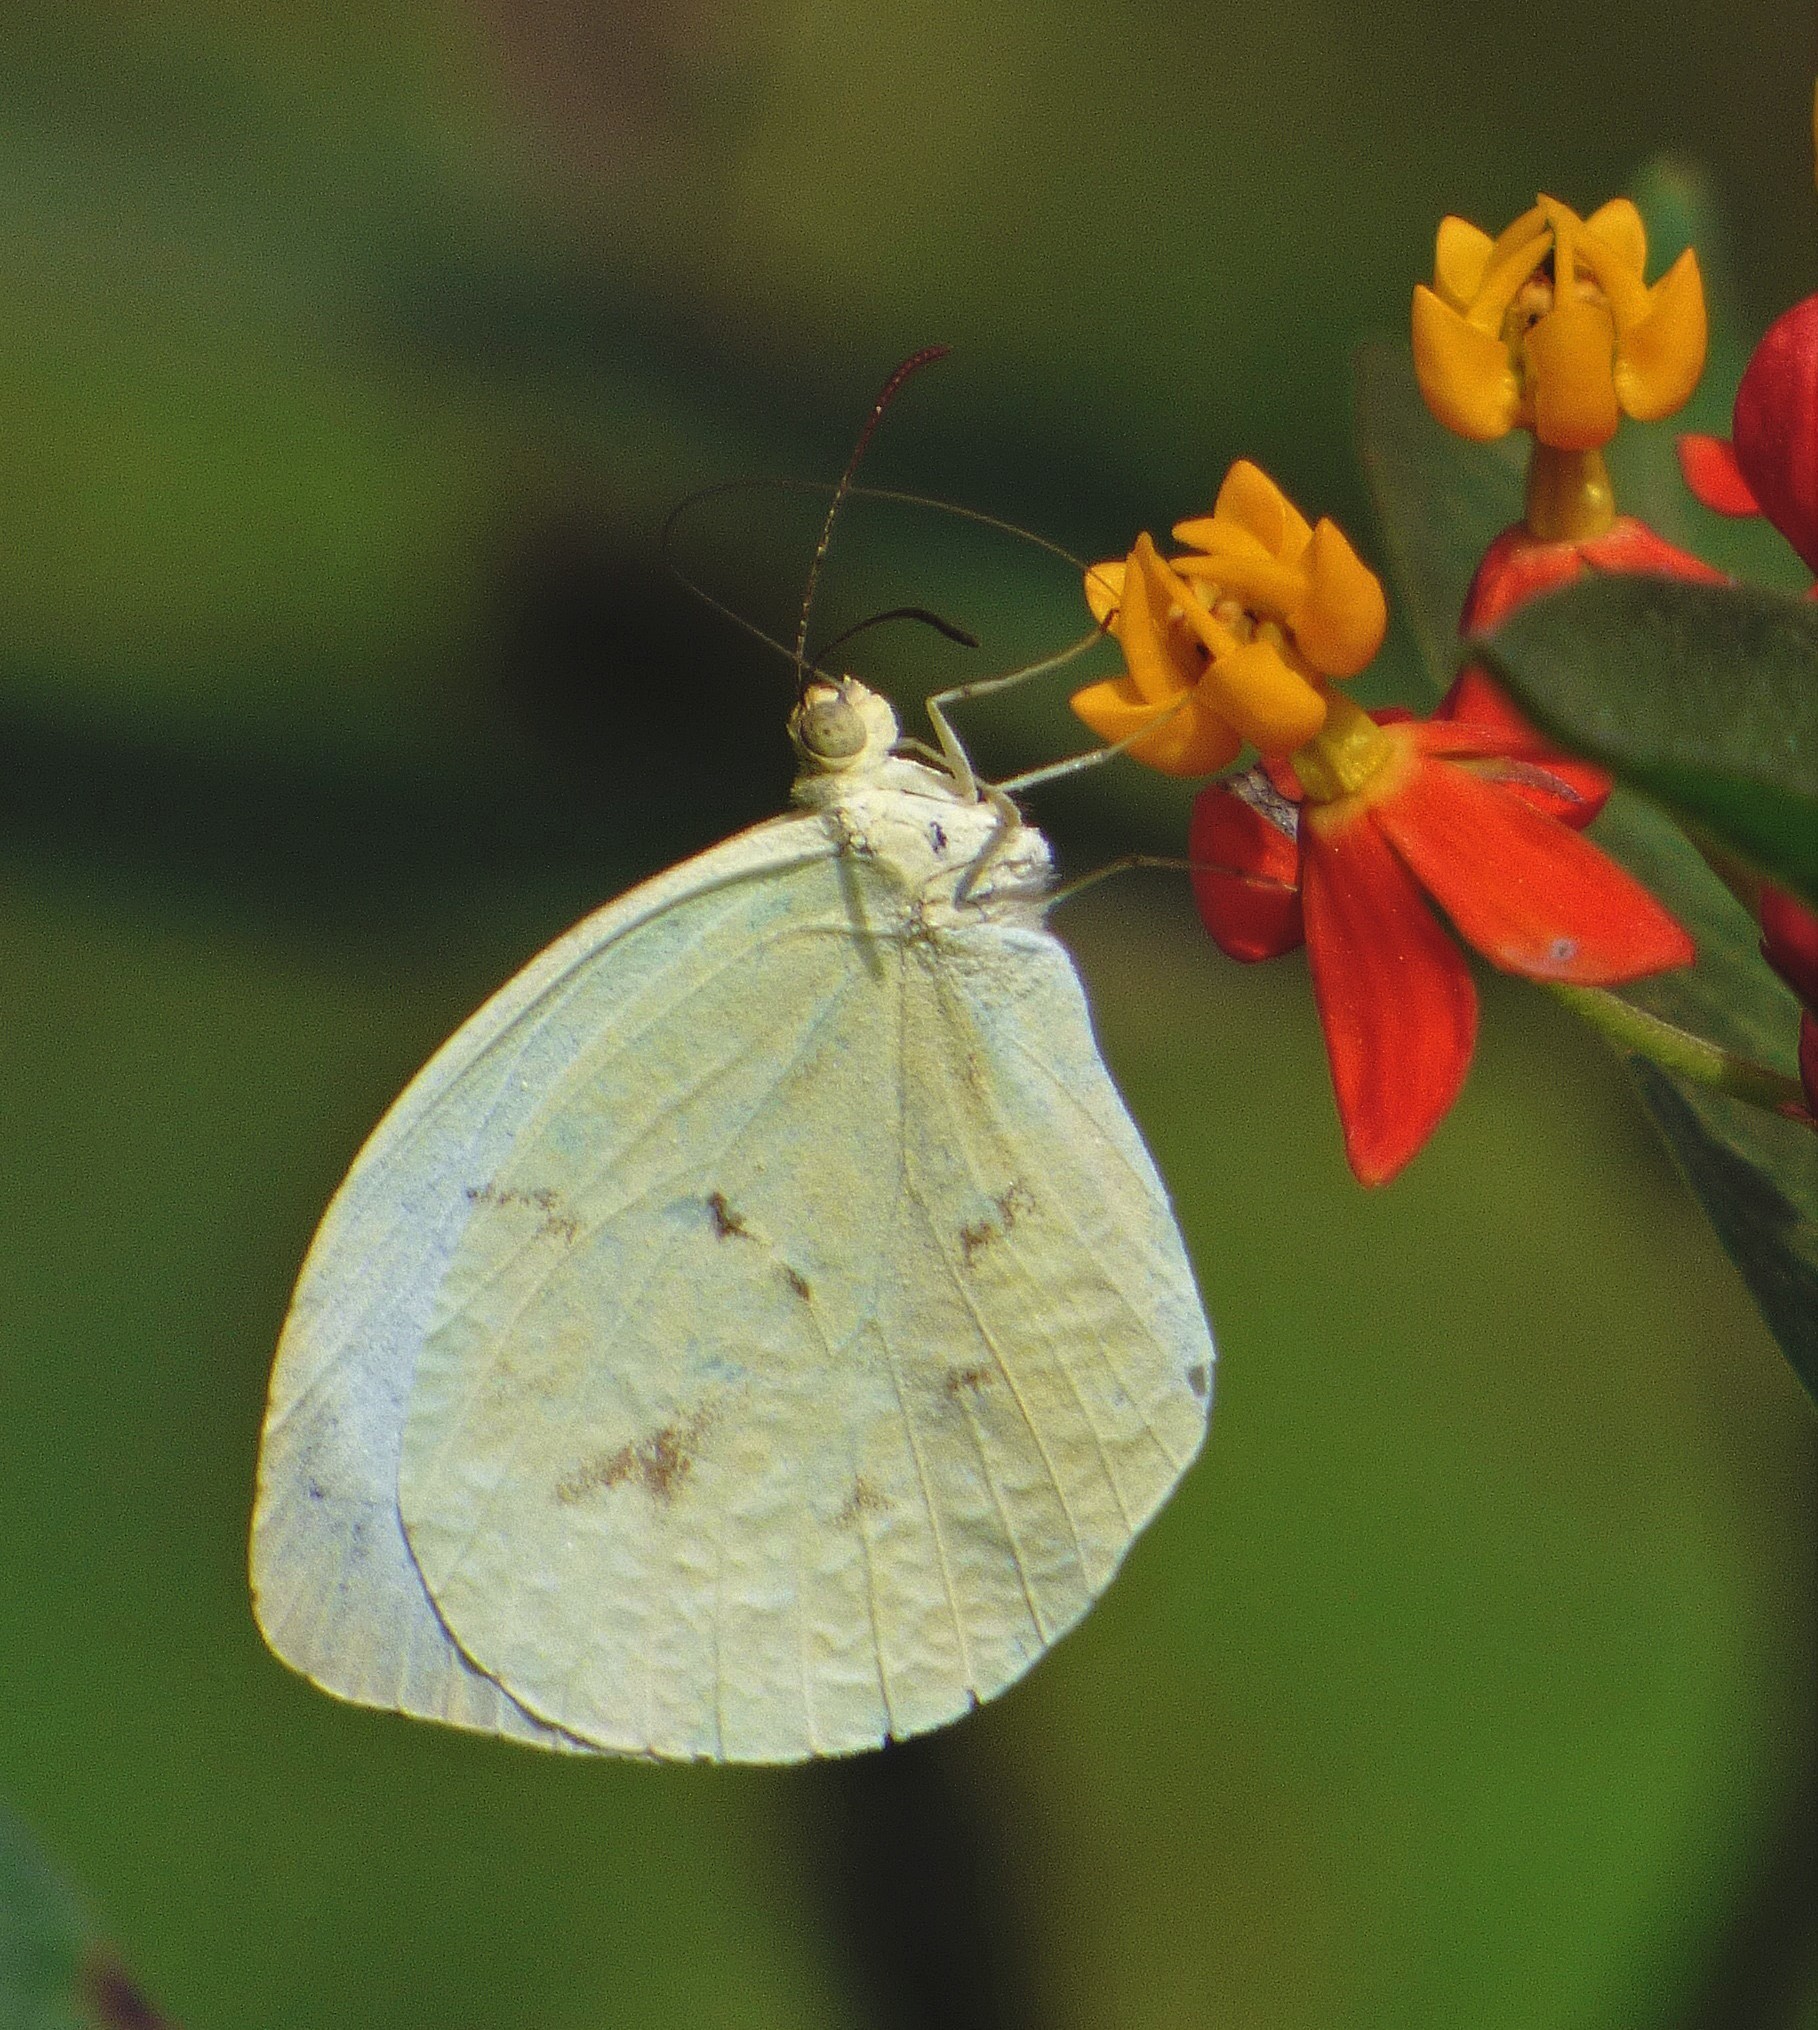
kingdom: Animalia
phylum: Arthropoda
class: Insecta
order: Lepidoptera
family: Pieridae
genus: Abaeis
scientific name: Abaeis albula
